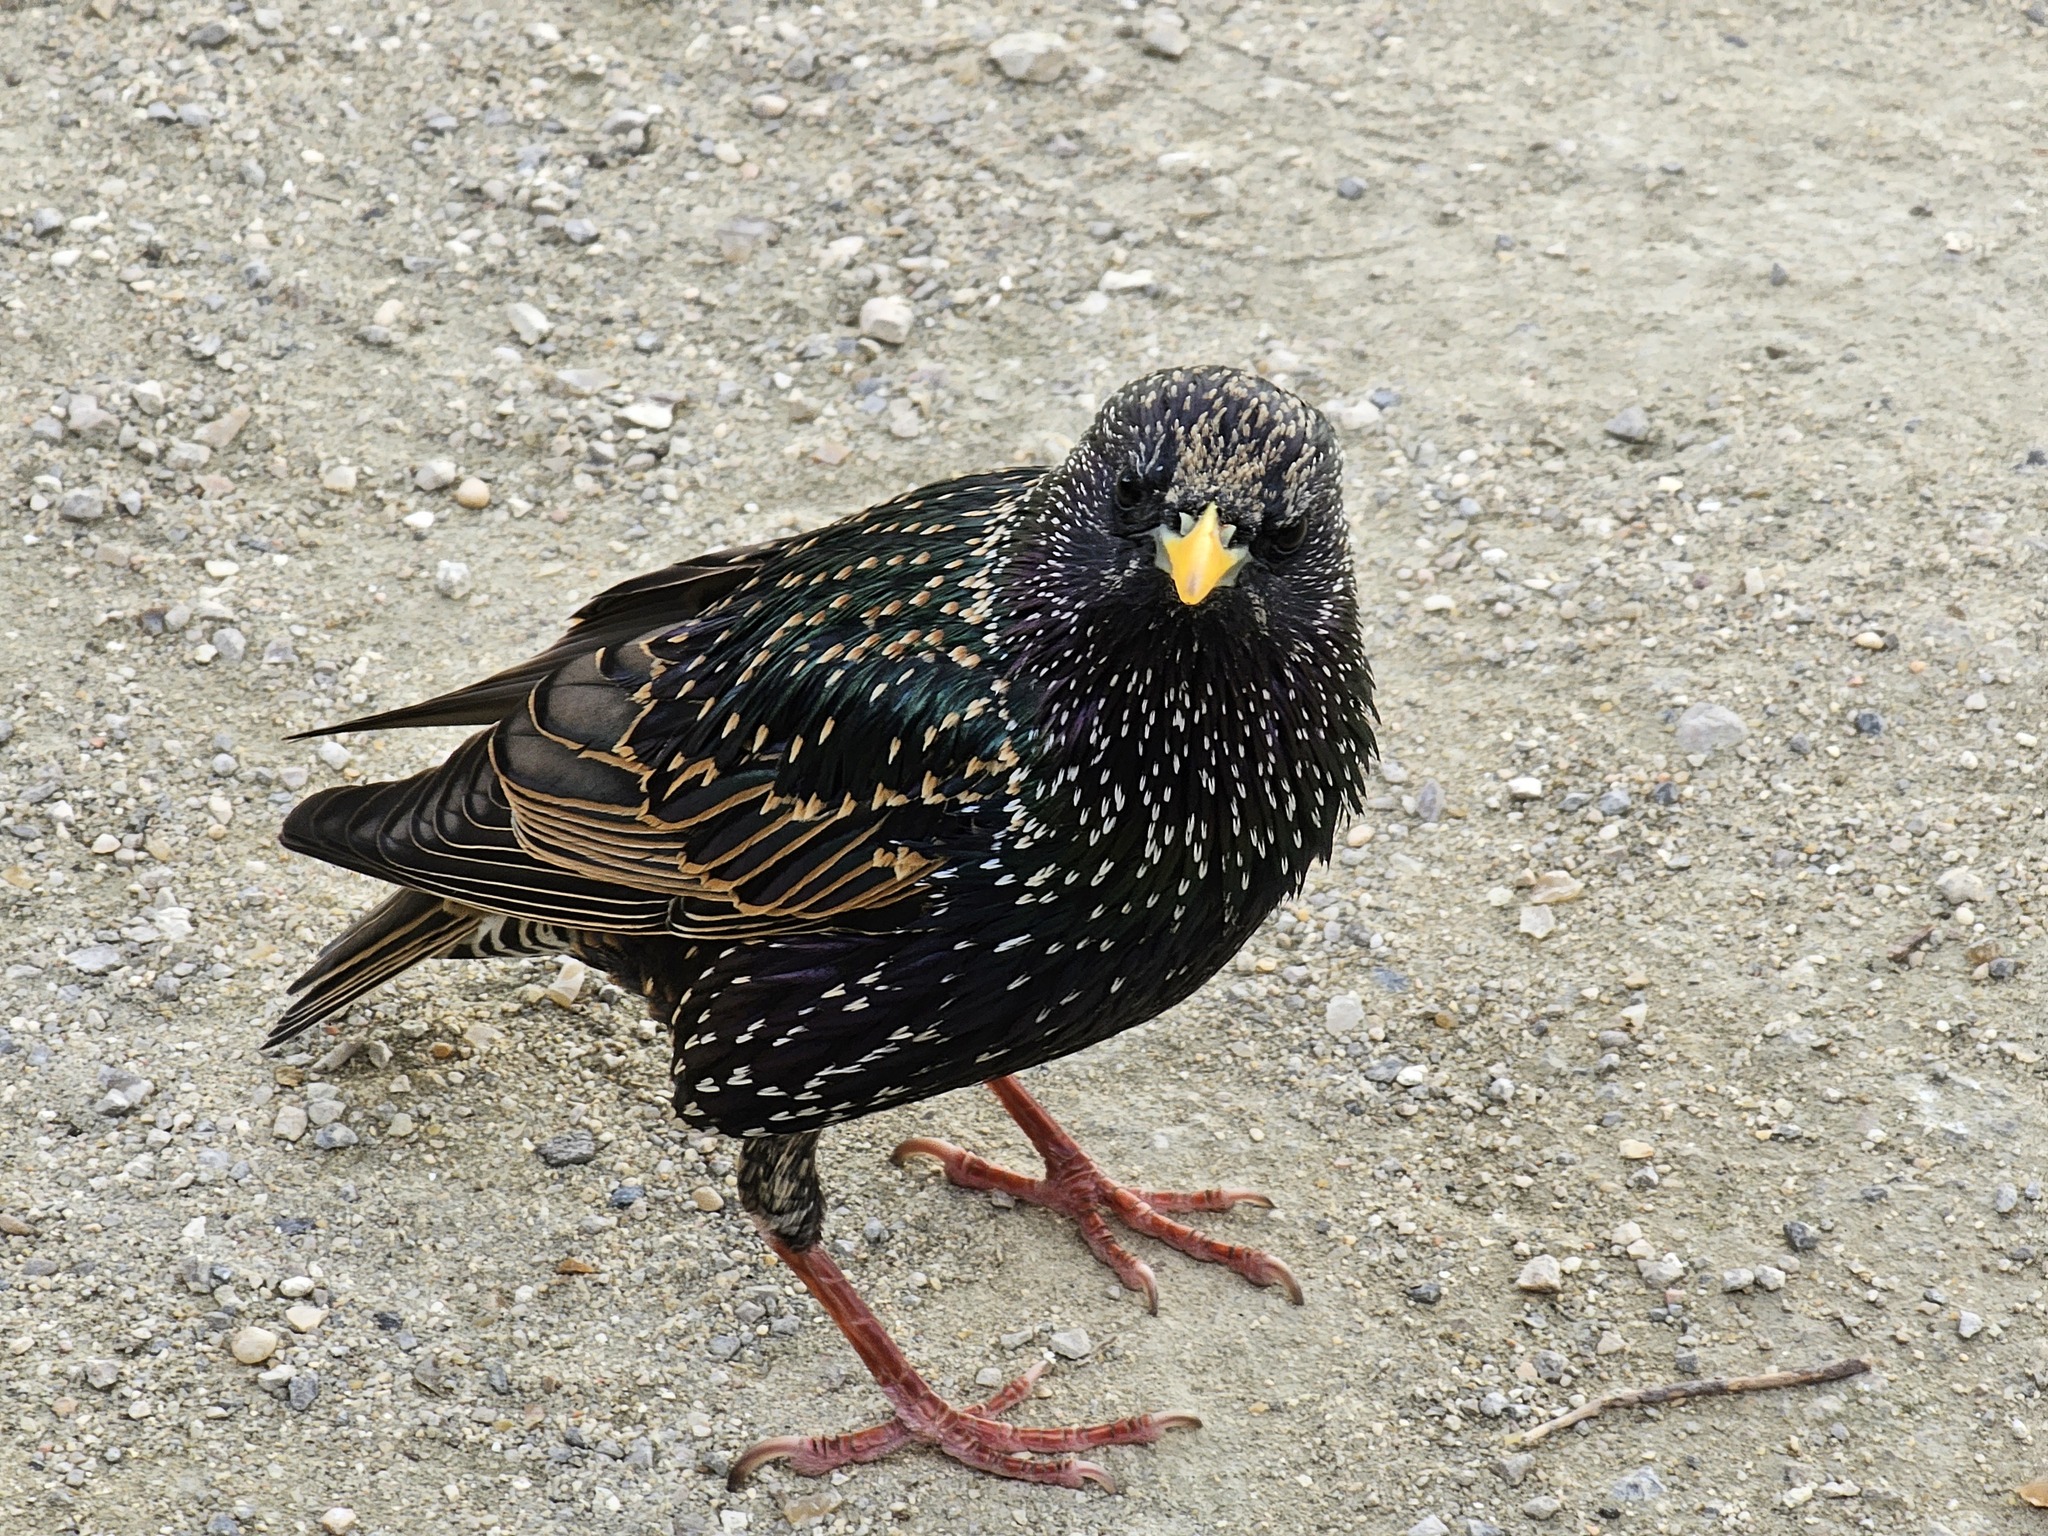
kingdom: Animalia
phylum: Chordata
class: Aves
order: Passeriformes
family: Sturnidae
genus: Sturnus
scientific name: Sturnus vulgaris
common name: Common starling
